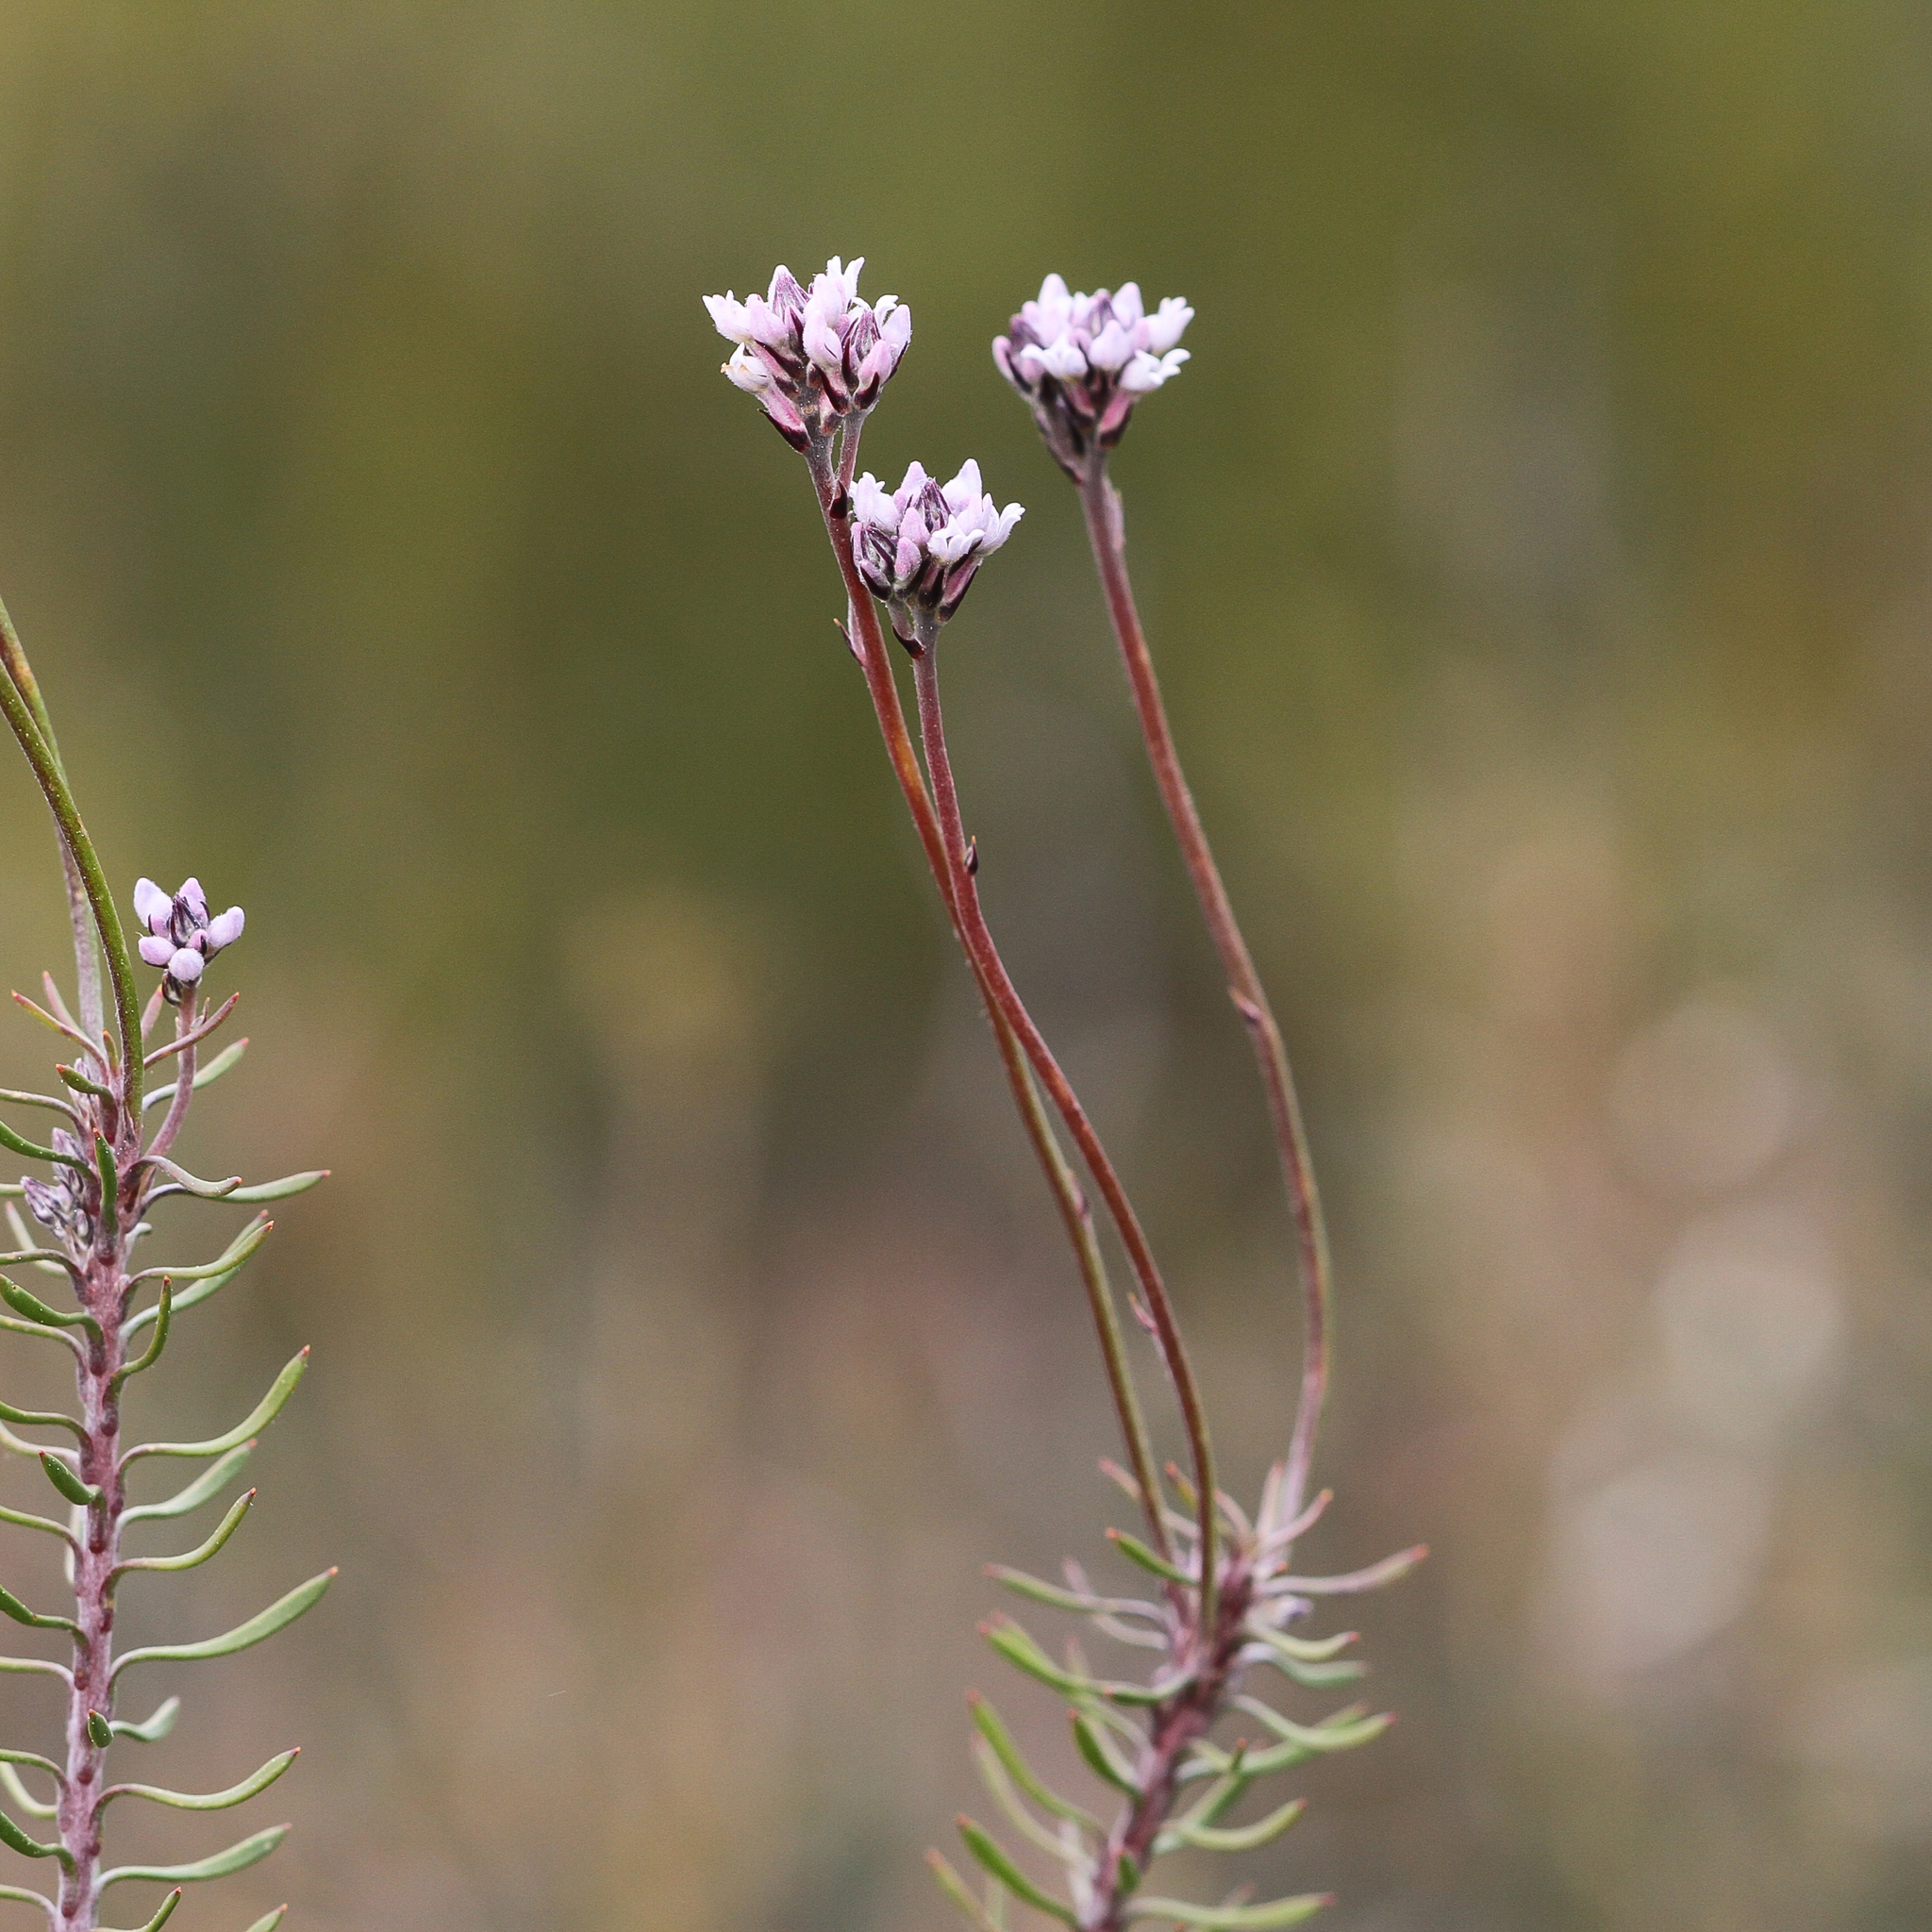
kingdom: Plantae
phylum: Tracheophyta
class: Magnoliopsida
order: Proteales
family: Proteaceae
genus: Conospermum
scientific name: Conospermum patens
